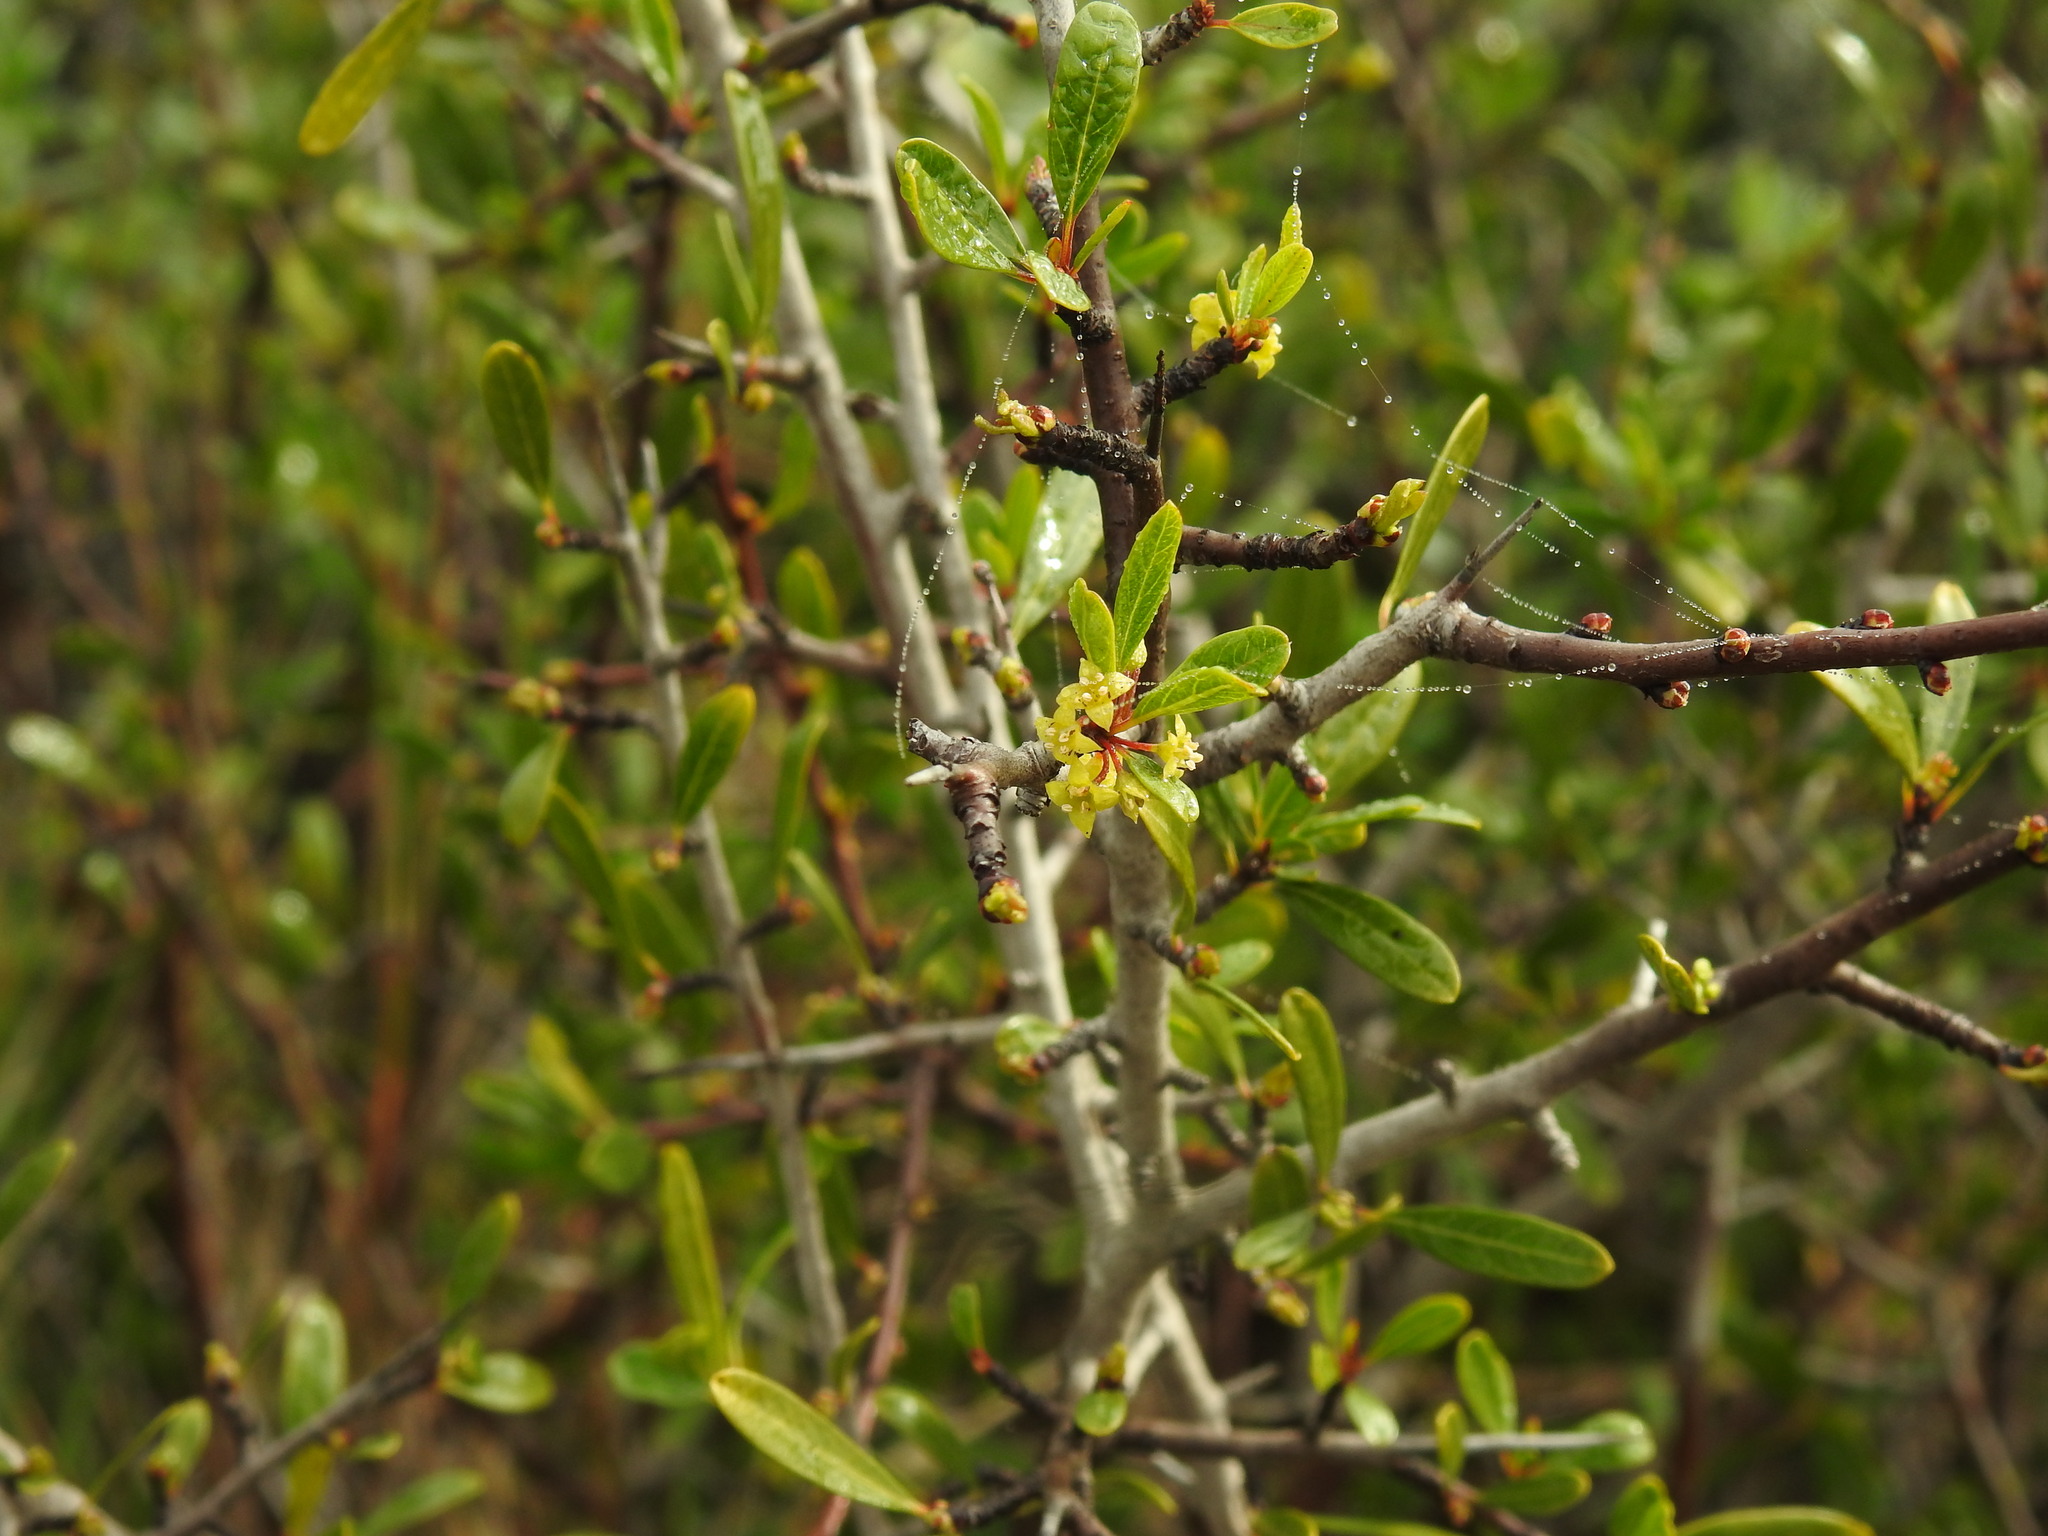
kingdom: Plantae
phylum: Tracheophyta
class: Magnoliopsida
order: Rosales
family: Rhamnaceae
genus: Rhamnus
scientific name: Rhamnus oleoides
